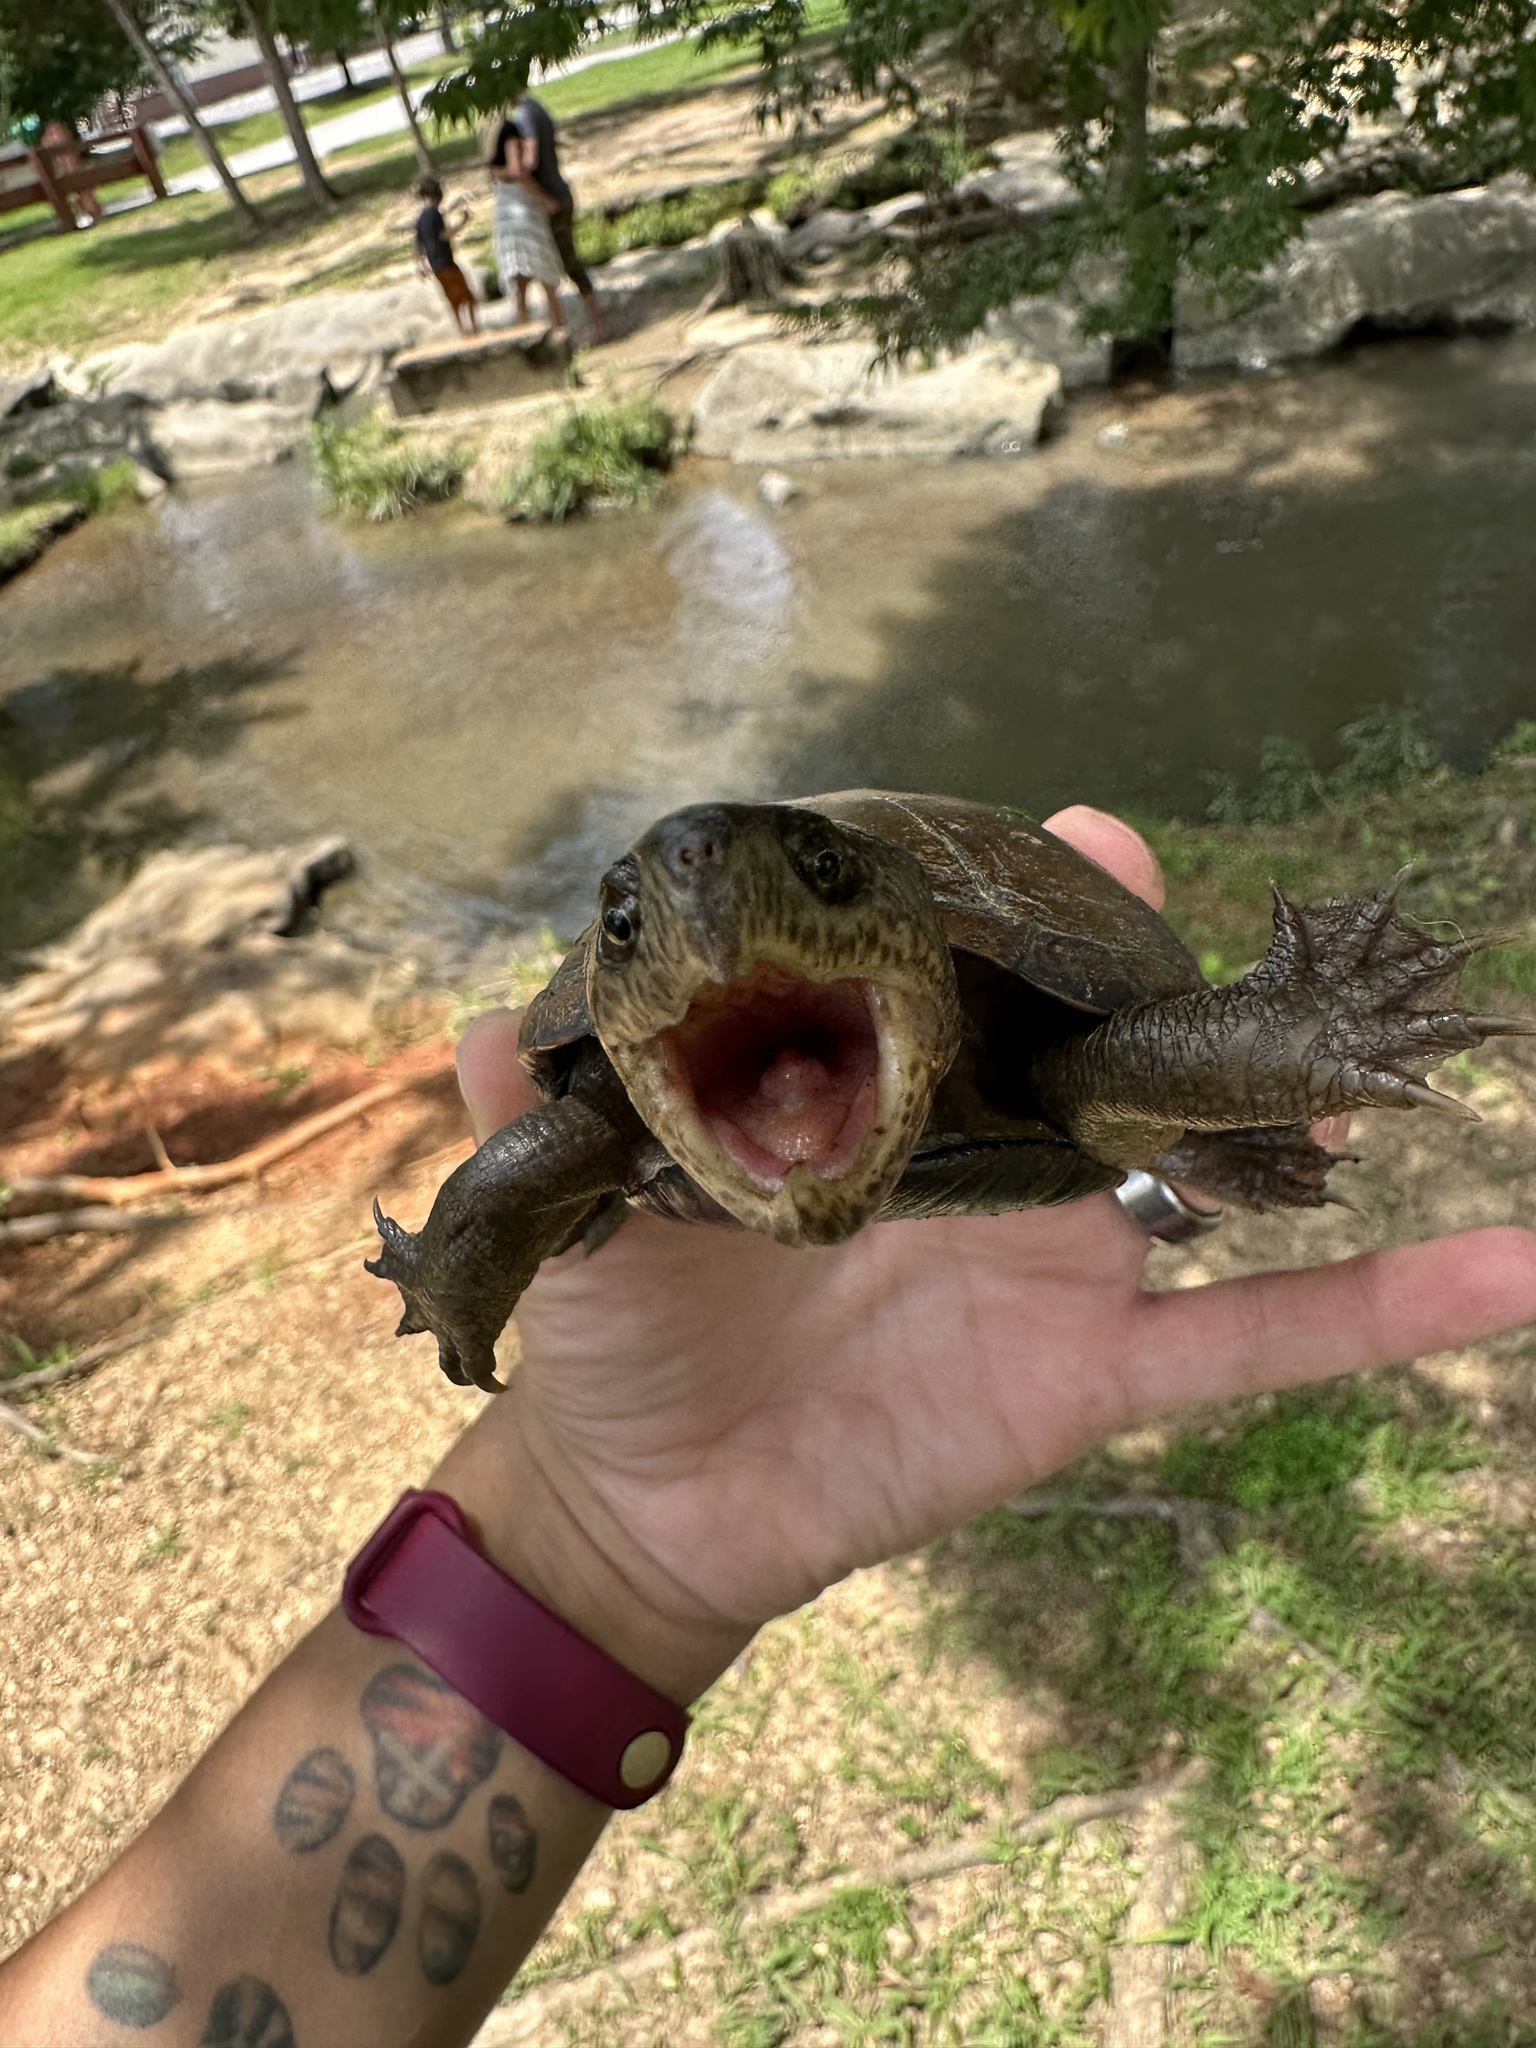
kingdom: Animalia
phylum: Chordata
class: Testudines
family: Kinosternidae
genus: Kinosternon
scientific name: Kinosternon subrubrum
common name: Eastern mud turtle
